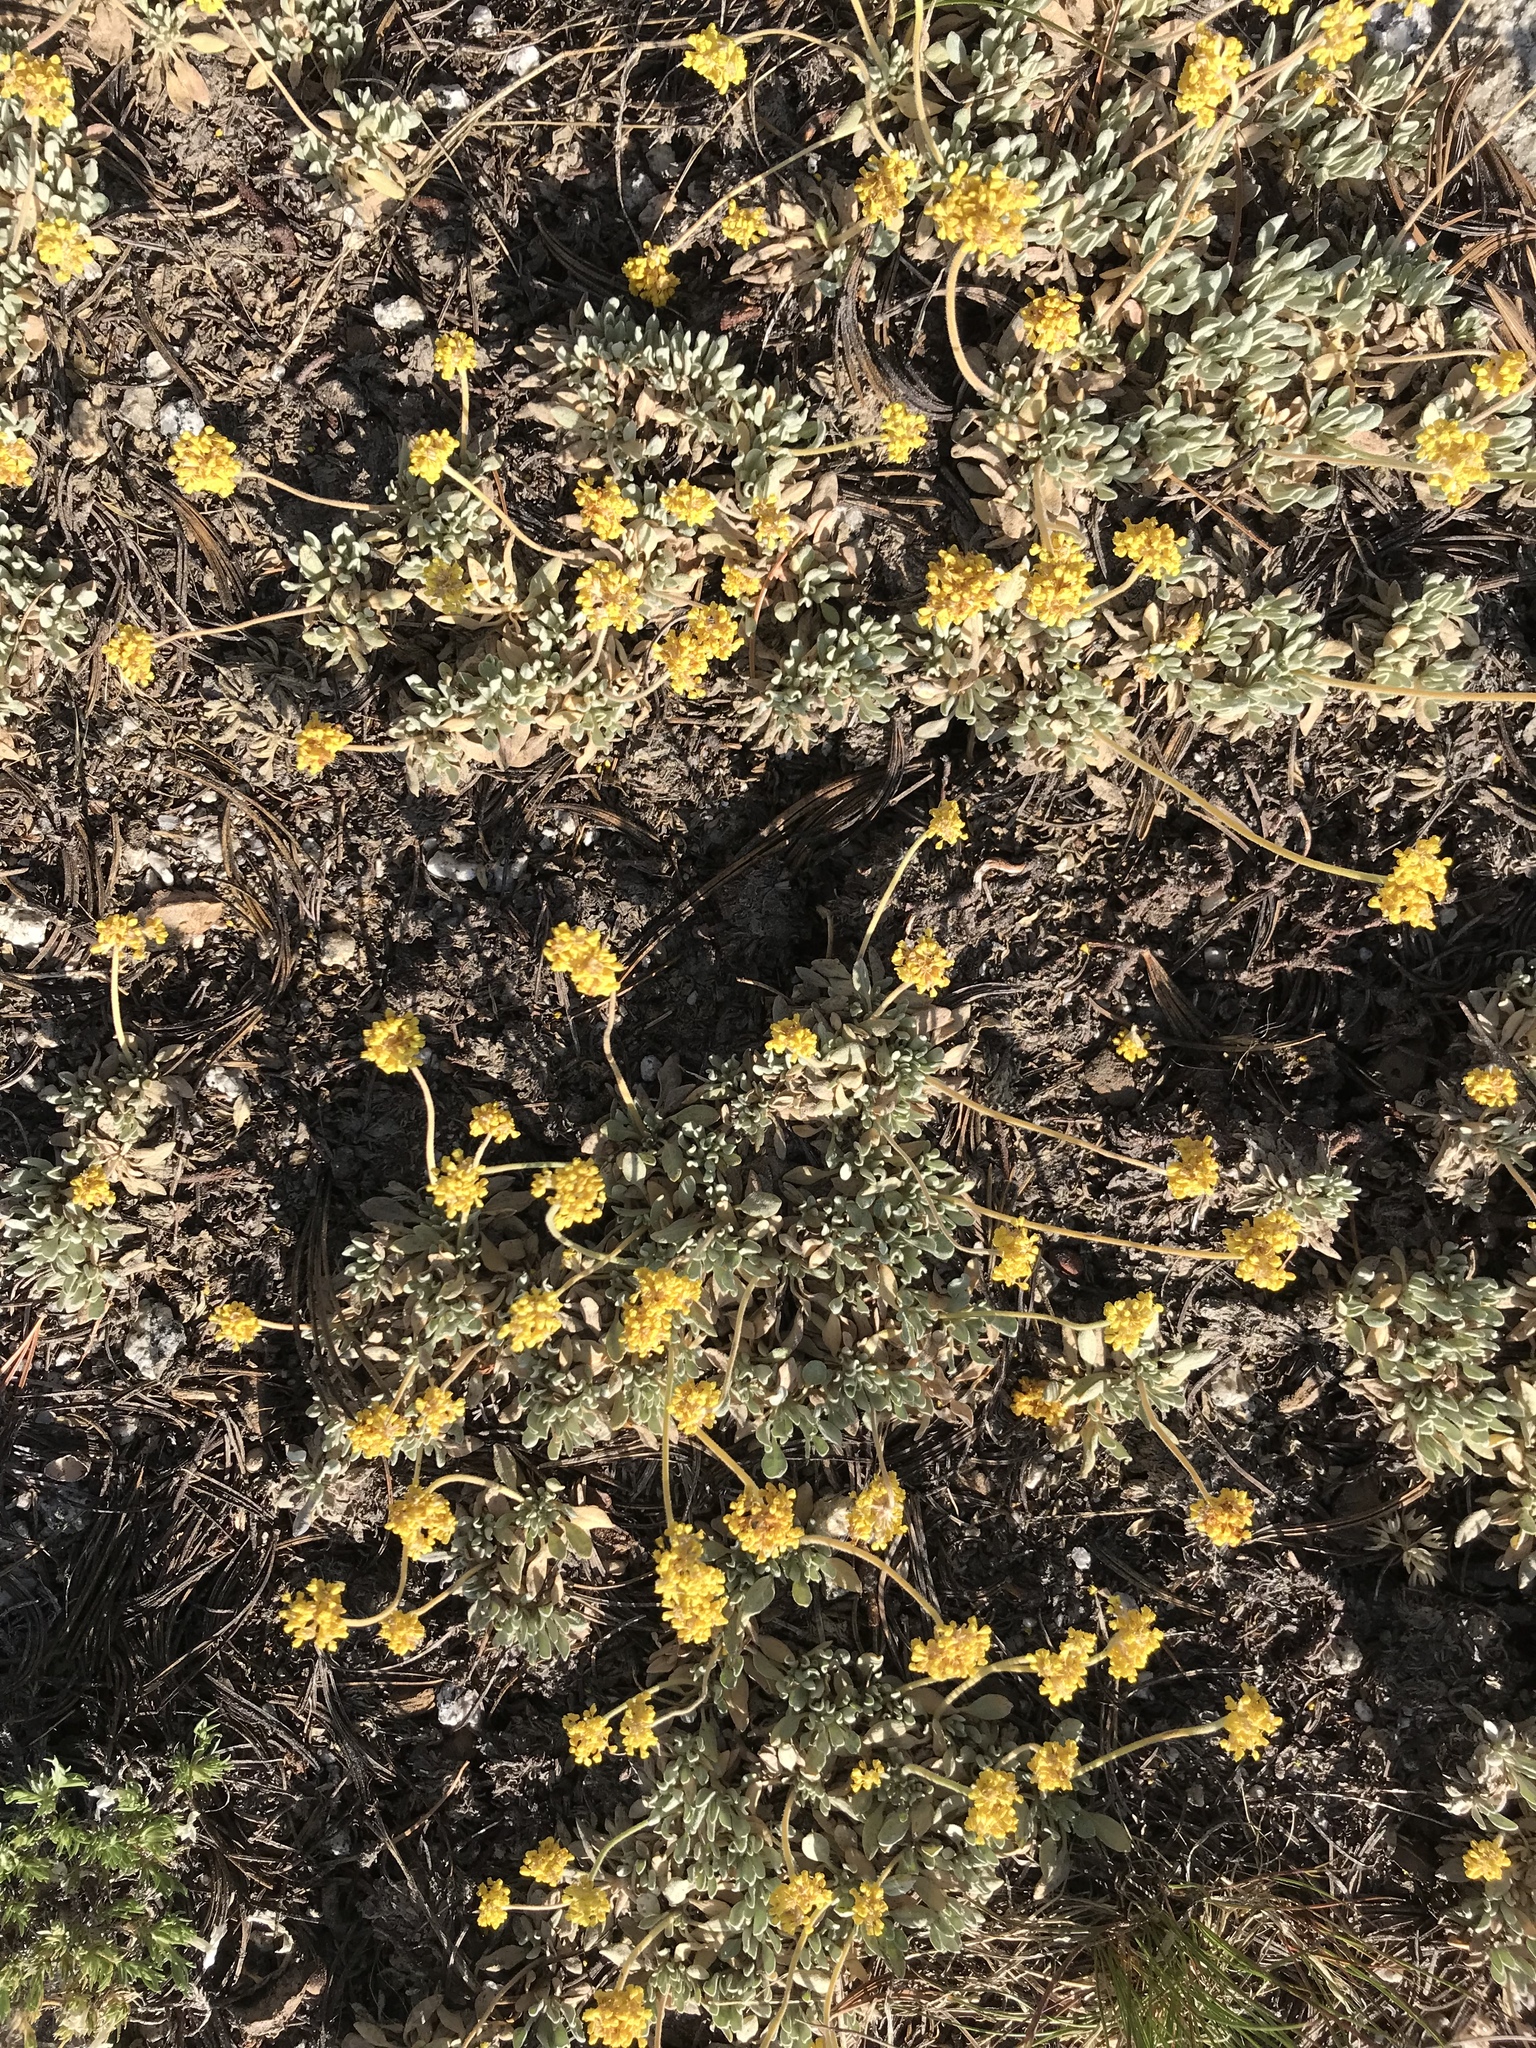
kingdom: Plantae
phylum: Tracheophyta
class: Magnoliopsida
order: Caryophyllales
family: Polygonaceae
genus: Eriogonum
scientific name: Eriogonum incanum
